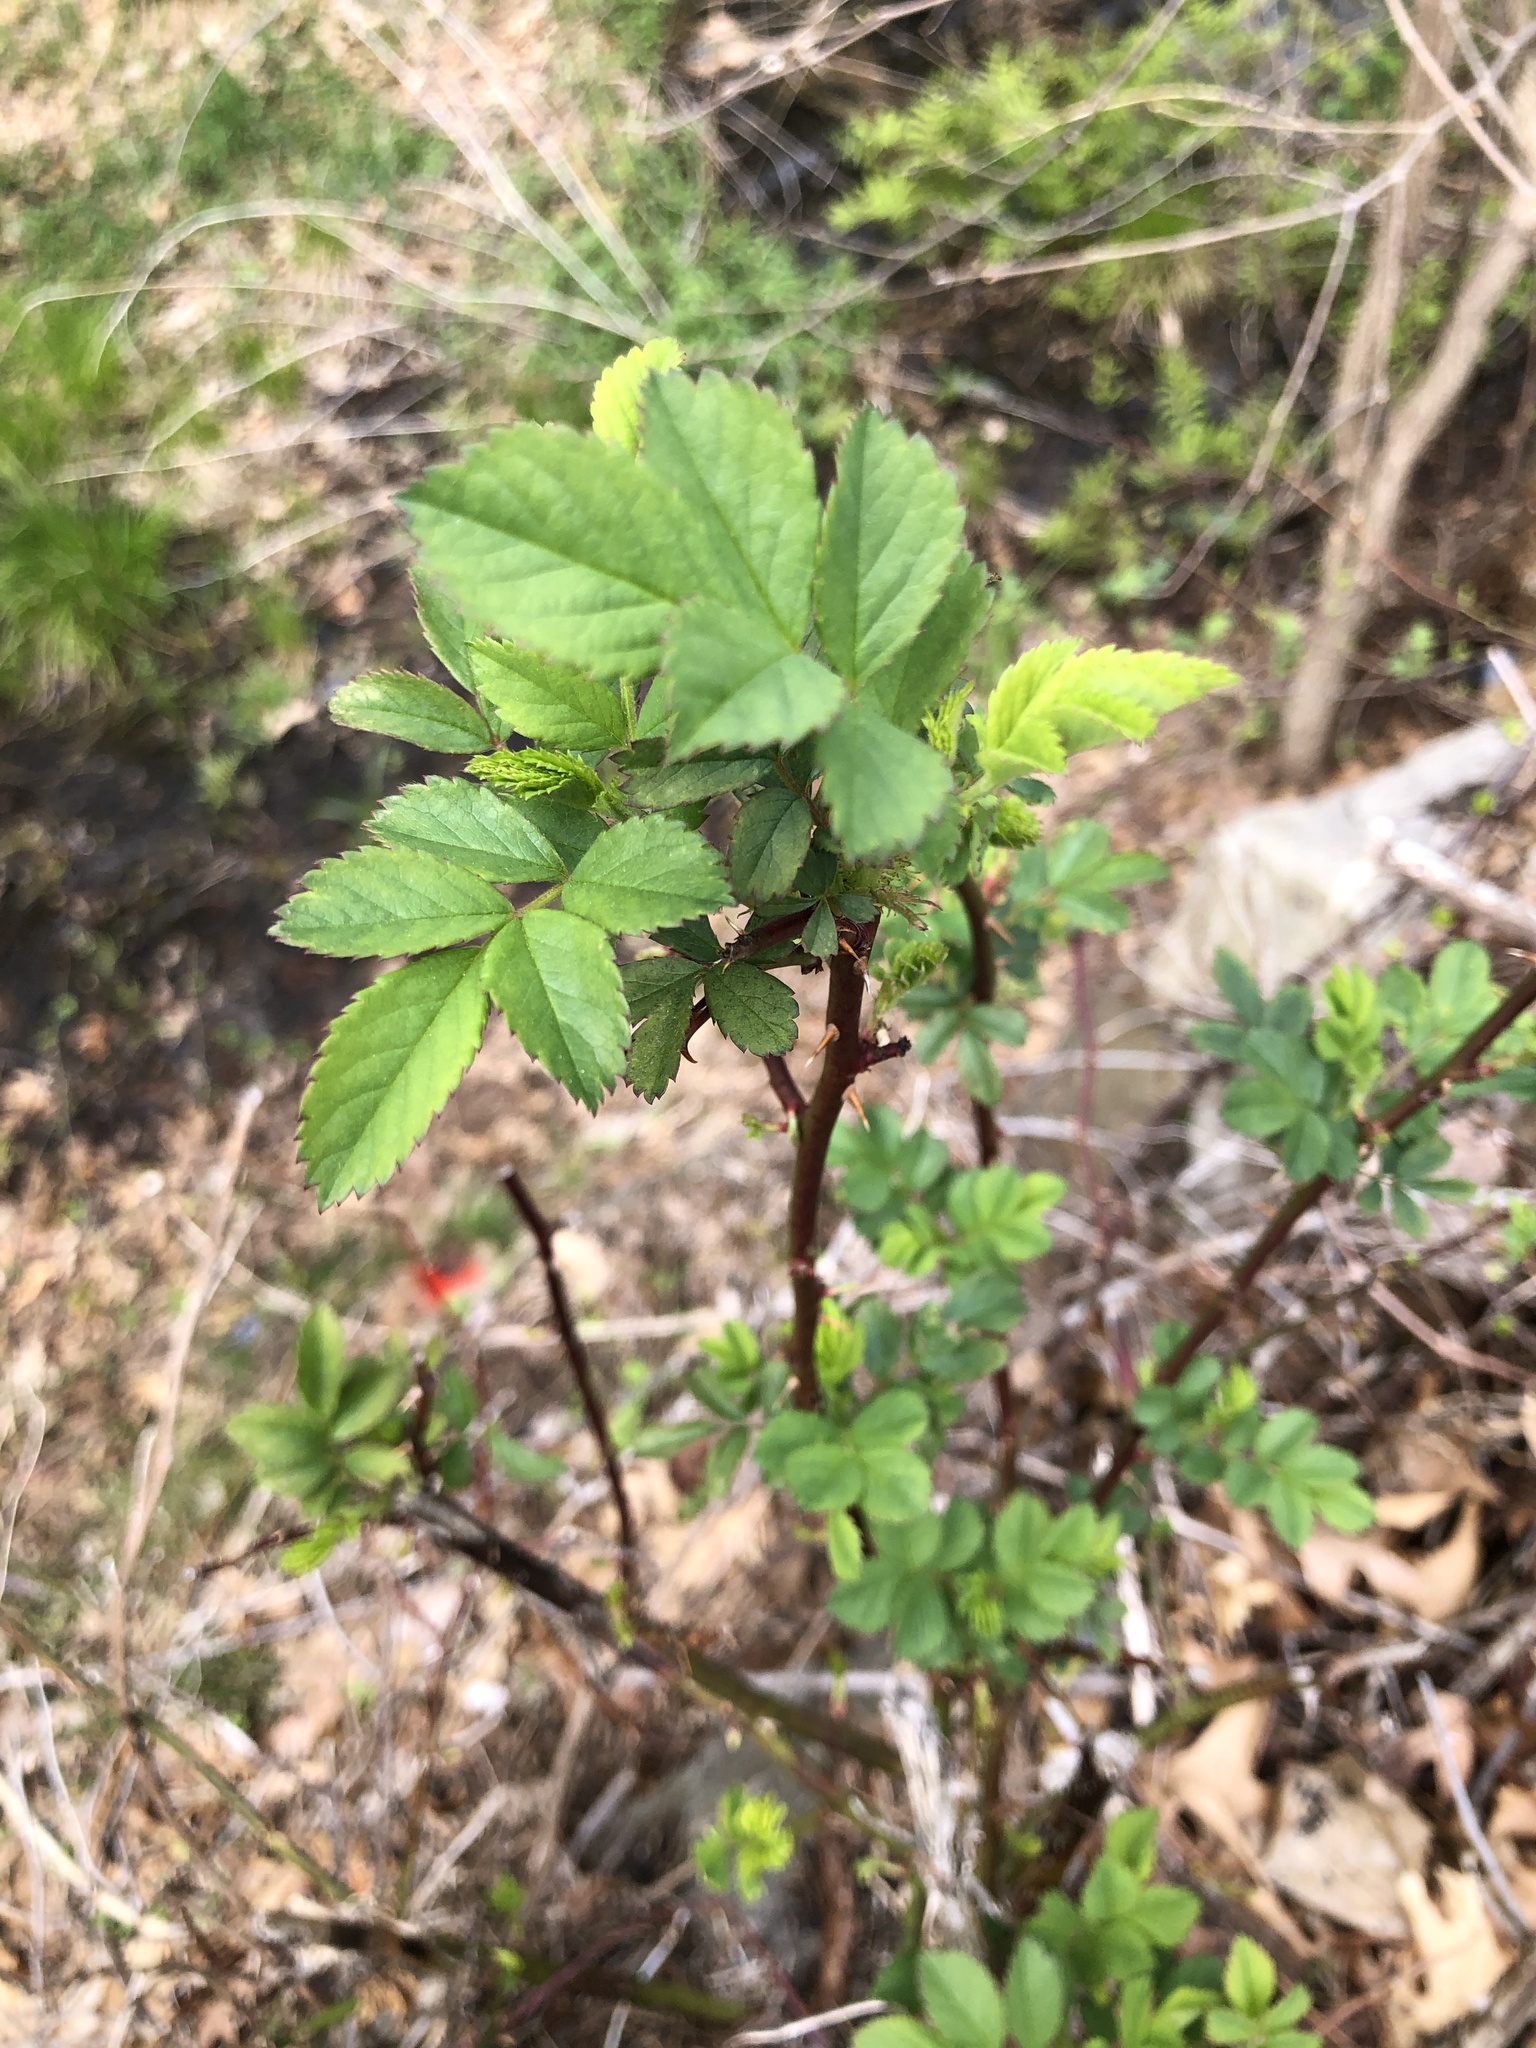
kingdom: Plantae
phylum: Tracheophyta
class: Magnoliopsida
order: Rosales
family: Rosaceae
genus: Rosa
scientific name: Rosa multiflora
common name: Multiflora rose
